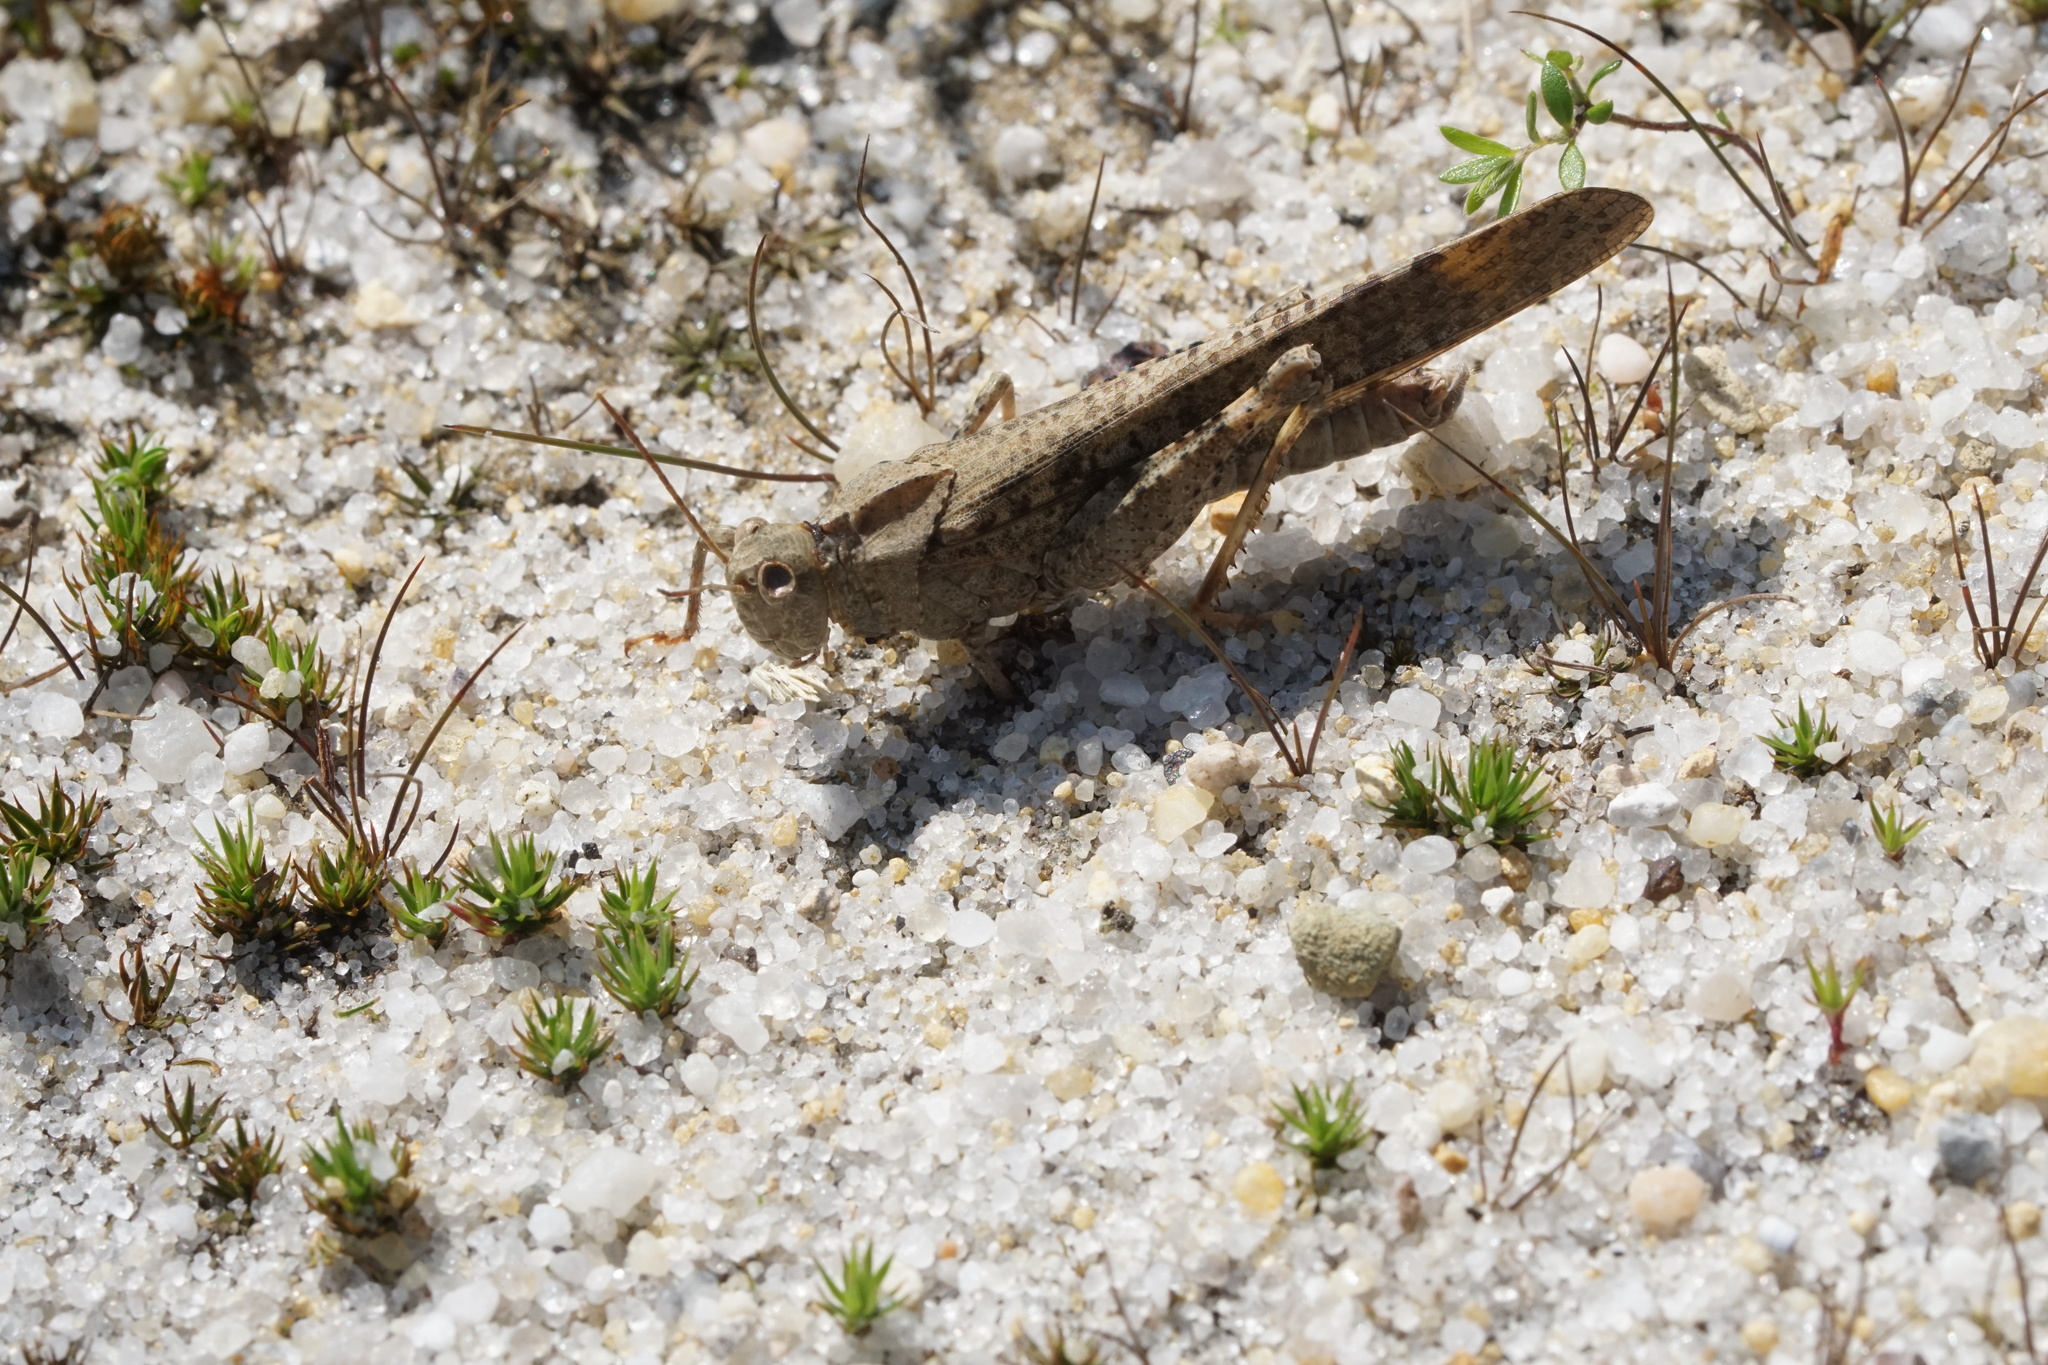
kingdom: Animalia
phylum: Arthropoda
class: Insecta
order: Orthoptera
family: Acrididae
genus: Dissosteira
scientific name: Dissosteira carolina
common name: Carolina grasshopper
